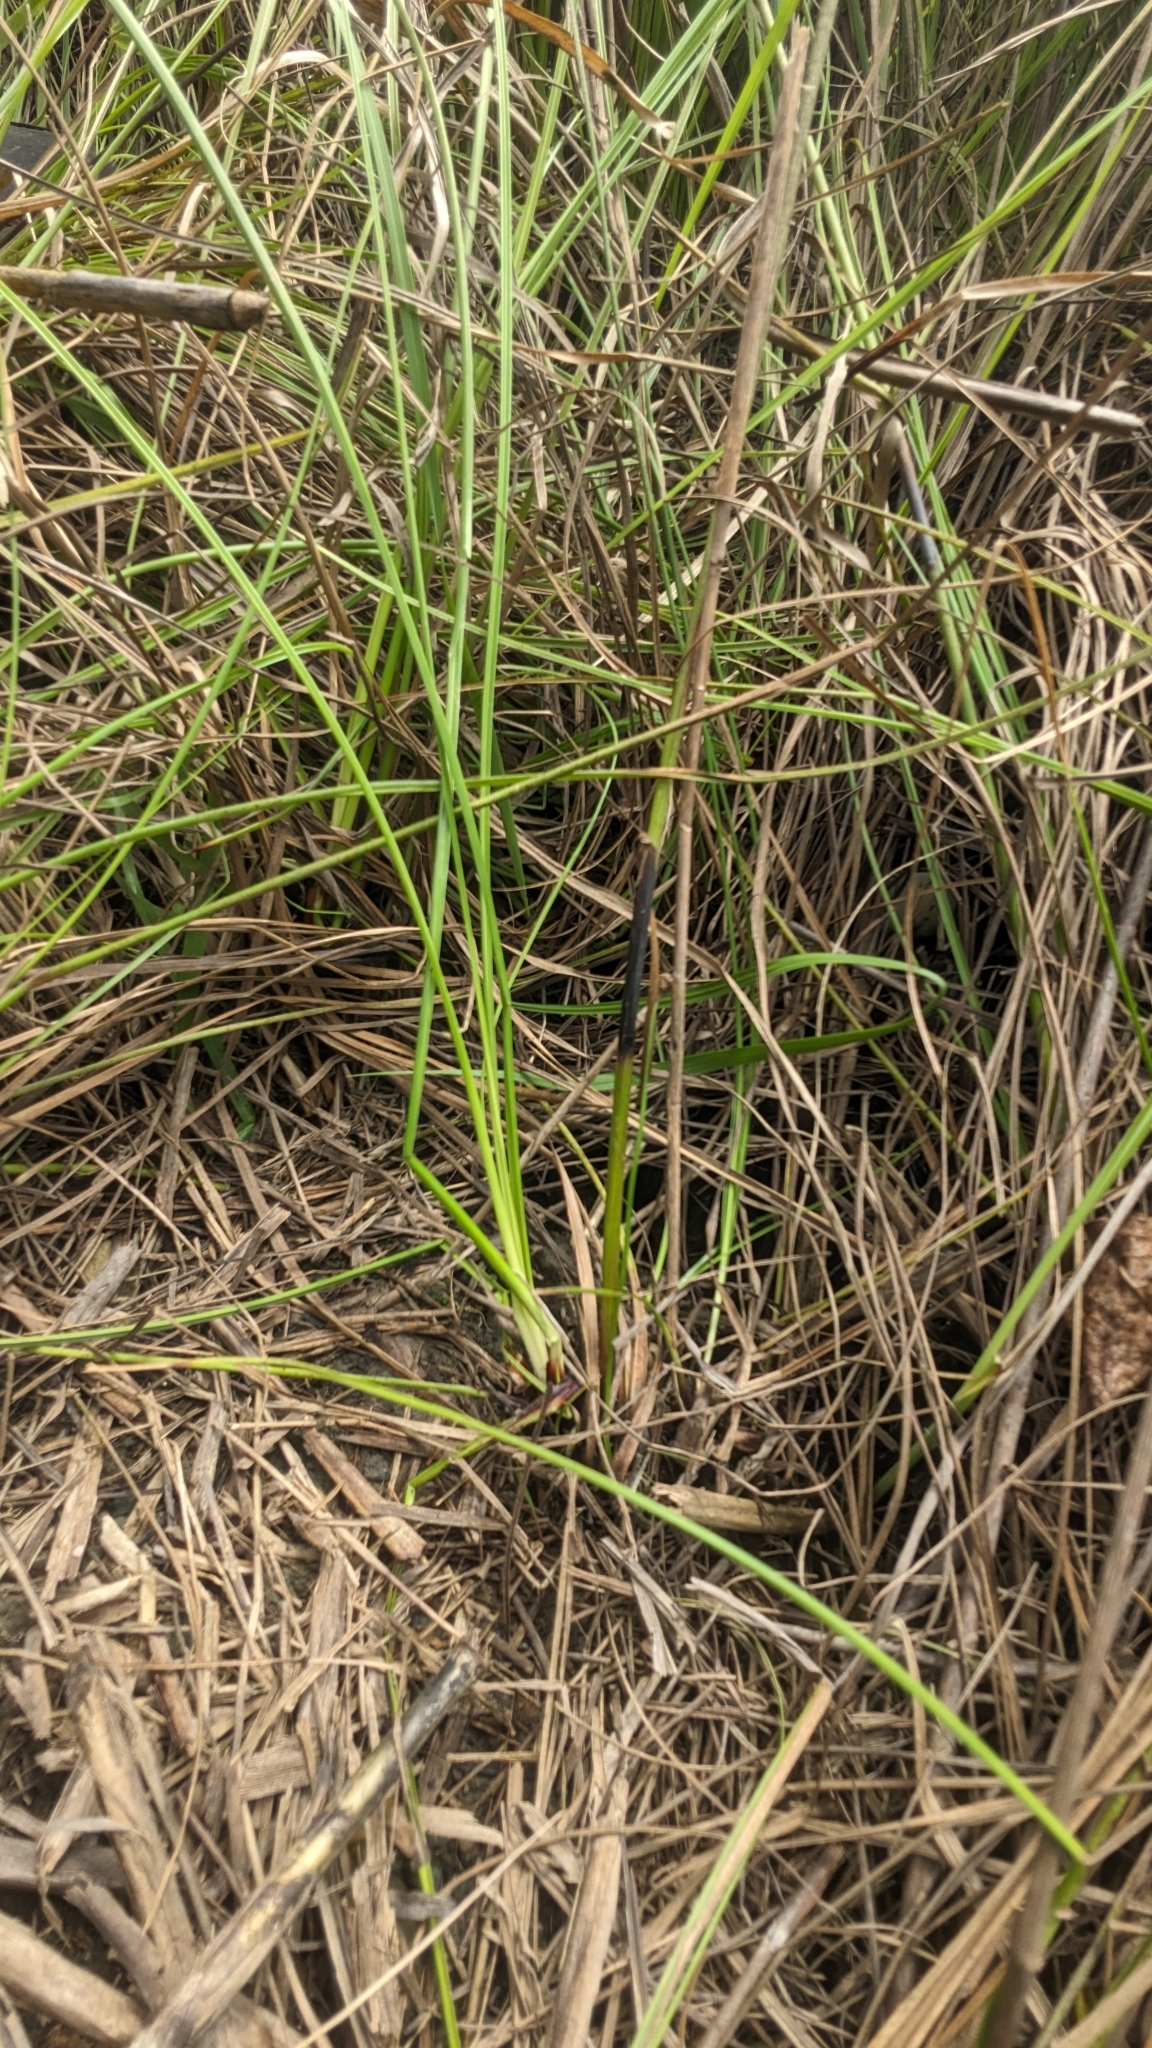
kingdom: Plantae
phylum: Tracheophyta
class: Liliopsida
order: Poales
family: Cyperaceae
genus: Schoenus
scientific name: Schoenus falcatus
